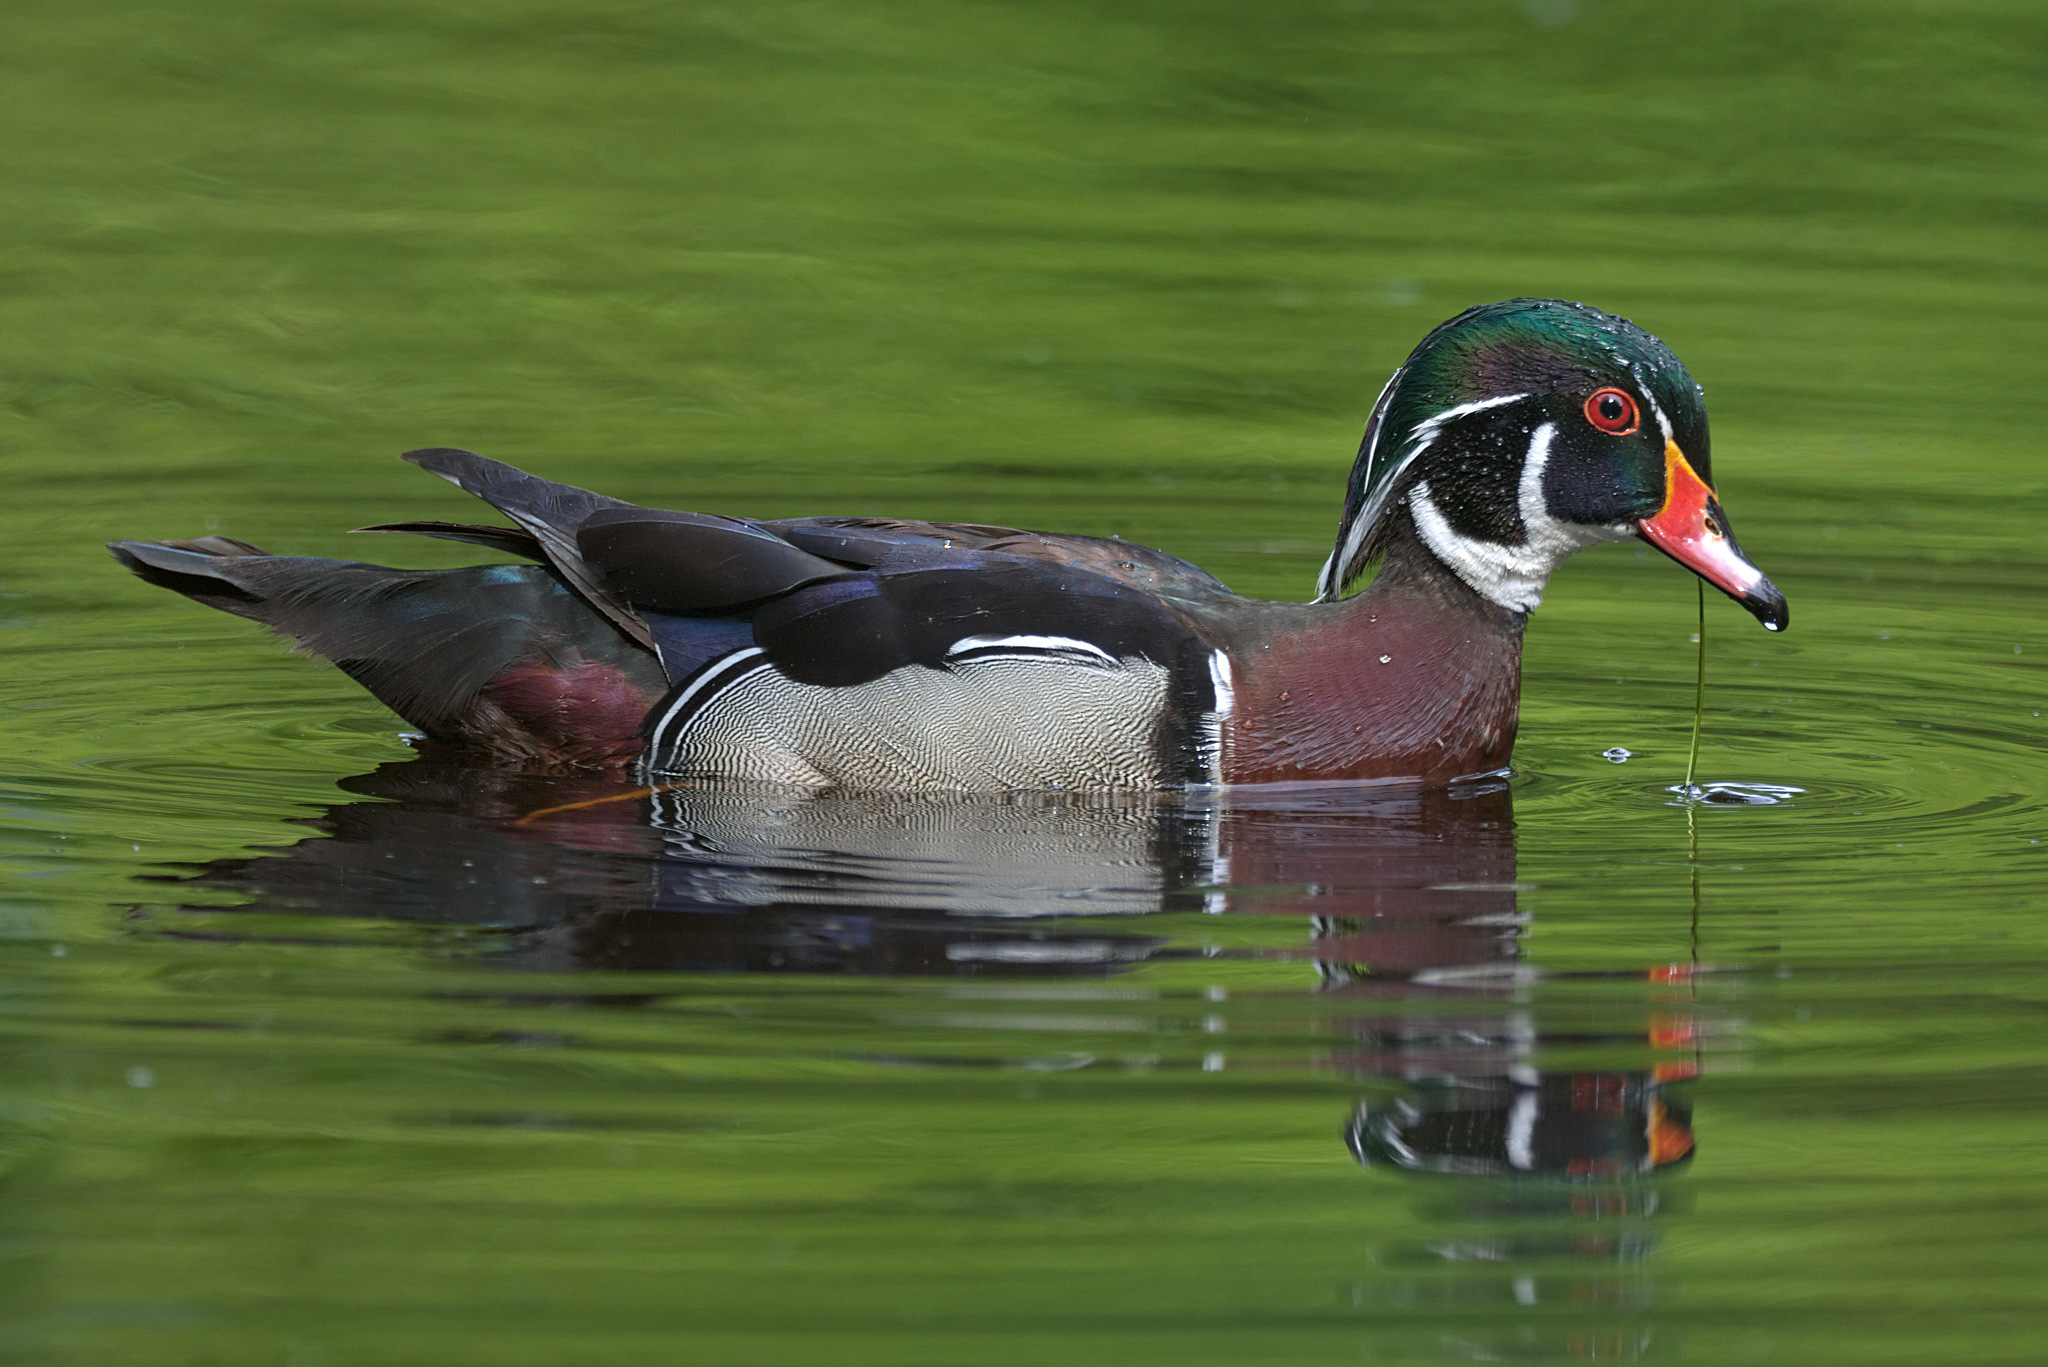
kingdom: Animalia
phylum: Chordata
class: Aves
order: Anseriformes
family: Anatidae
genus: Aix
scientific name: Aix sponsa
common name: Wood duck
